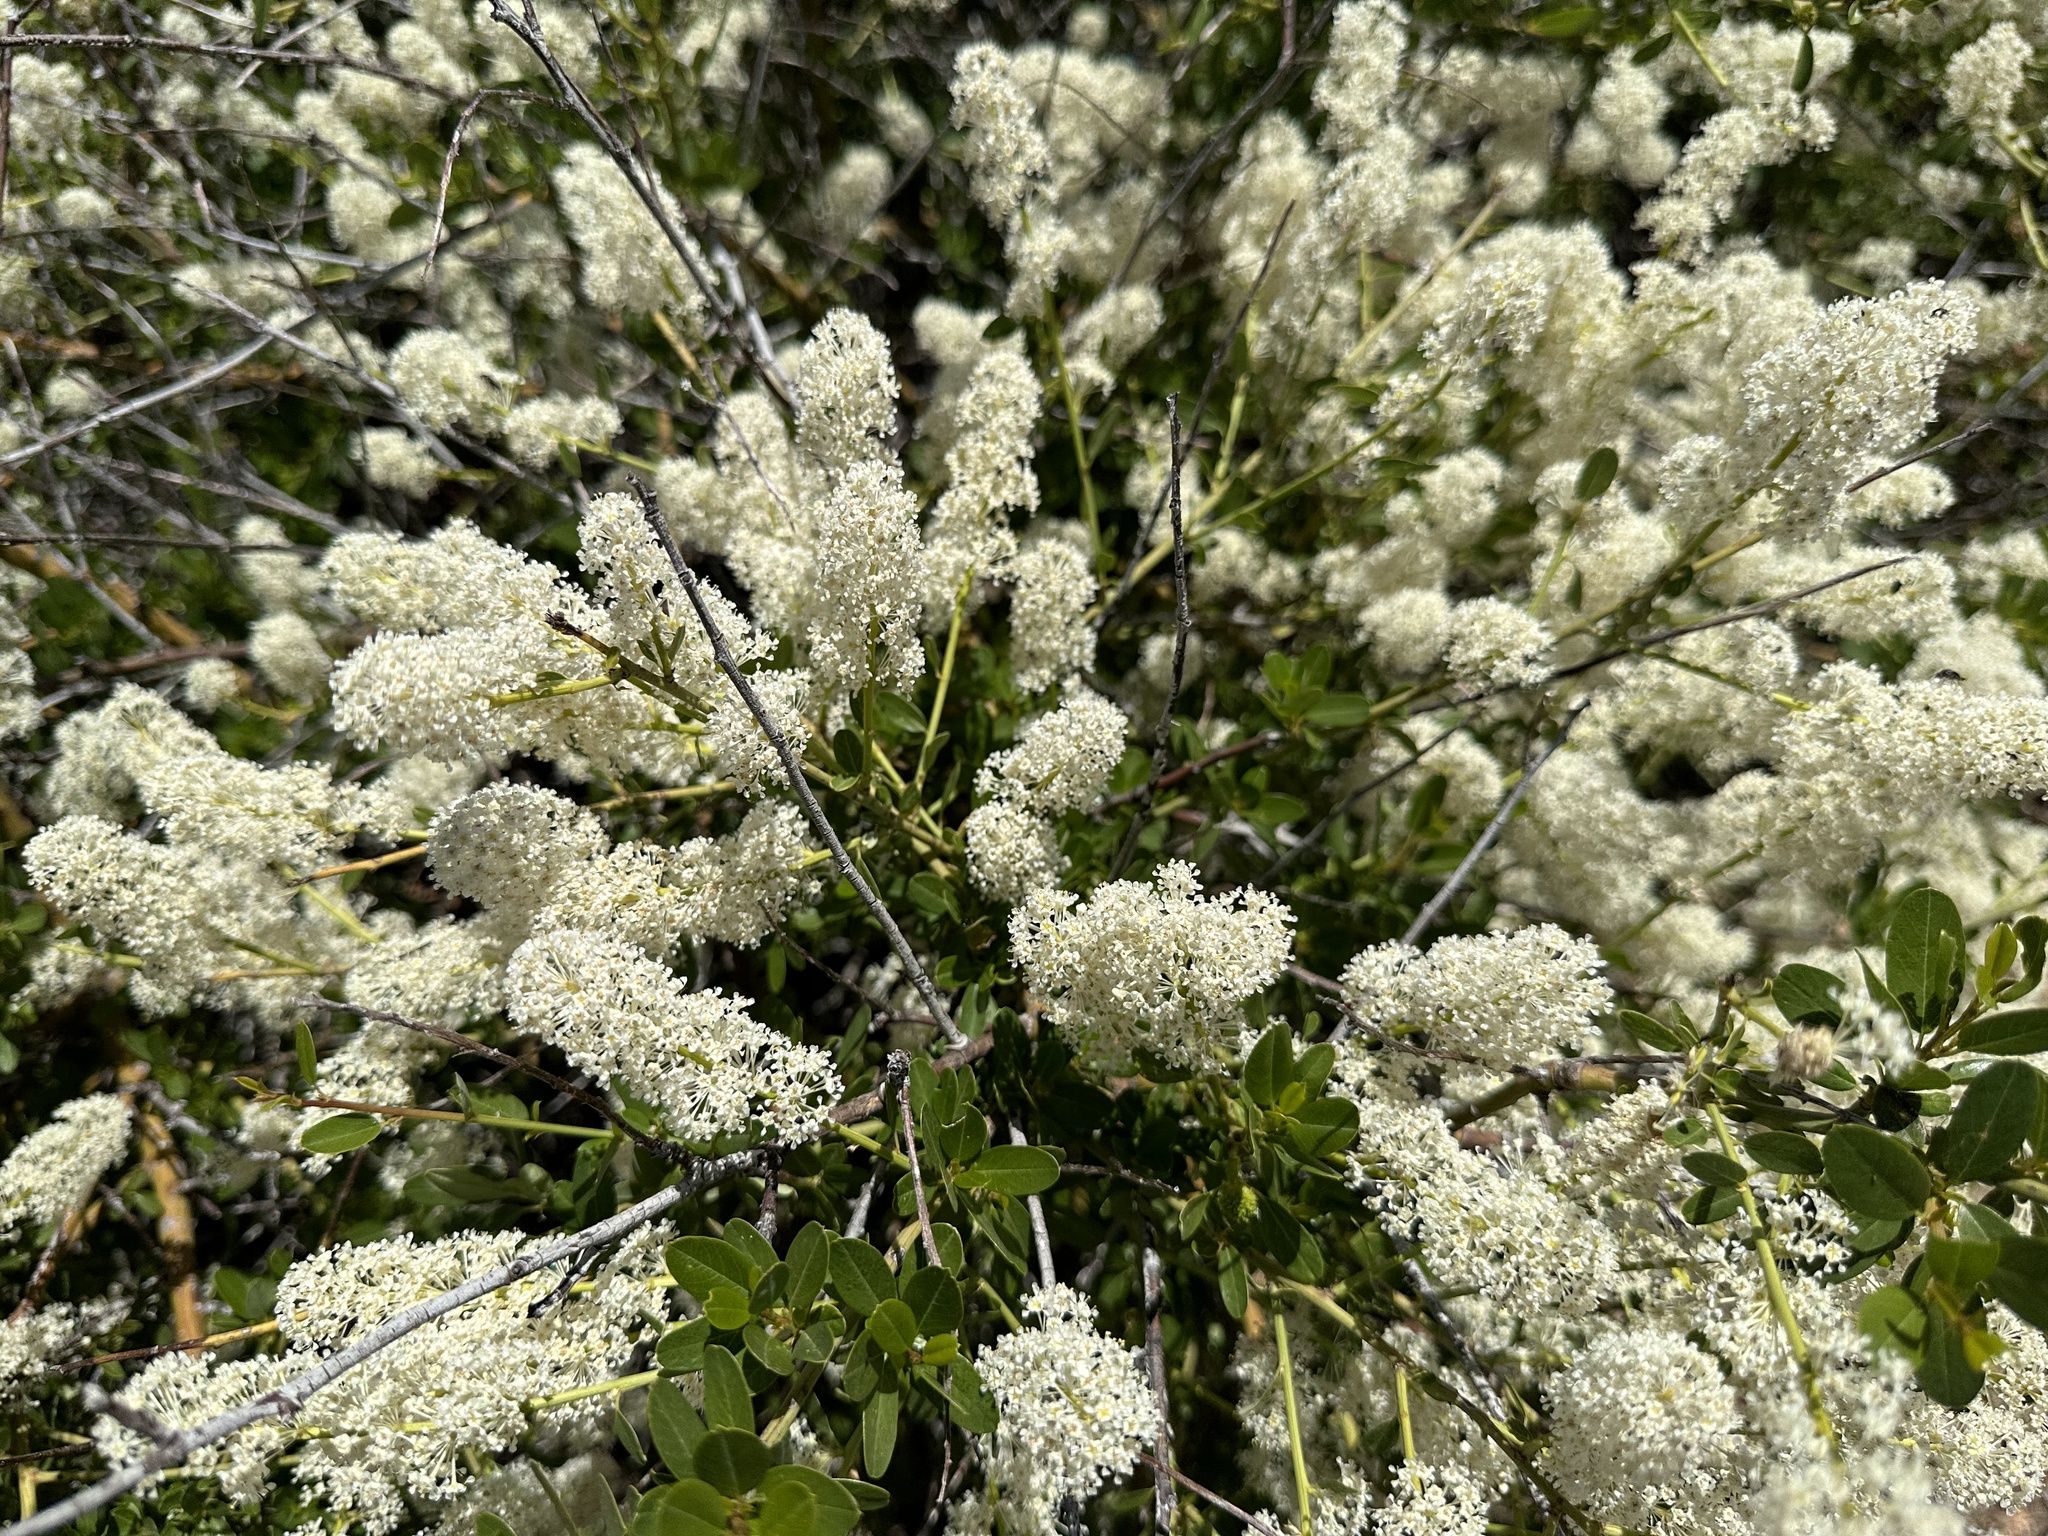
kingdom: Plantae
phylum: Tracheophyta
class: Magnoliopsida
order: Rosales
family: Rhamnaceae
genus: Ceanothus
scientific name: Ceanothus palmeri
